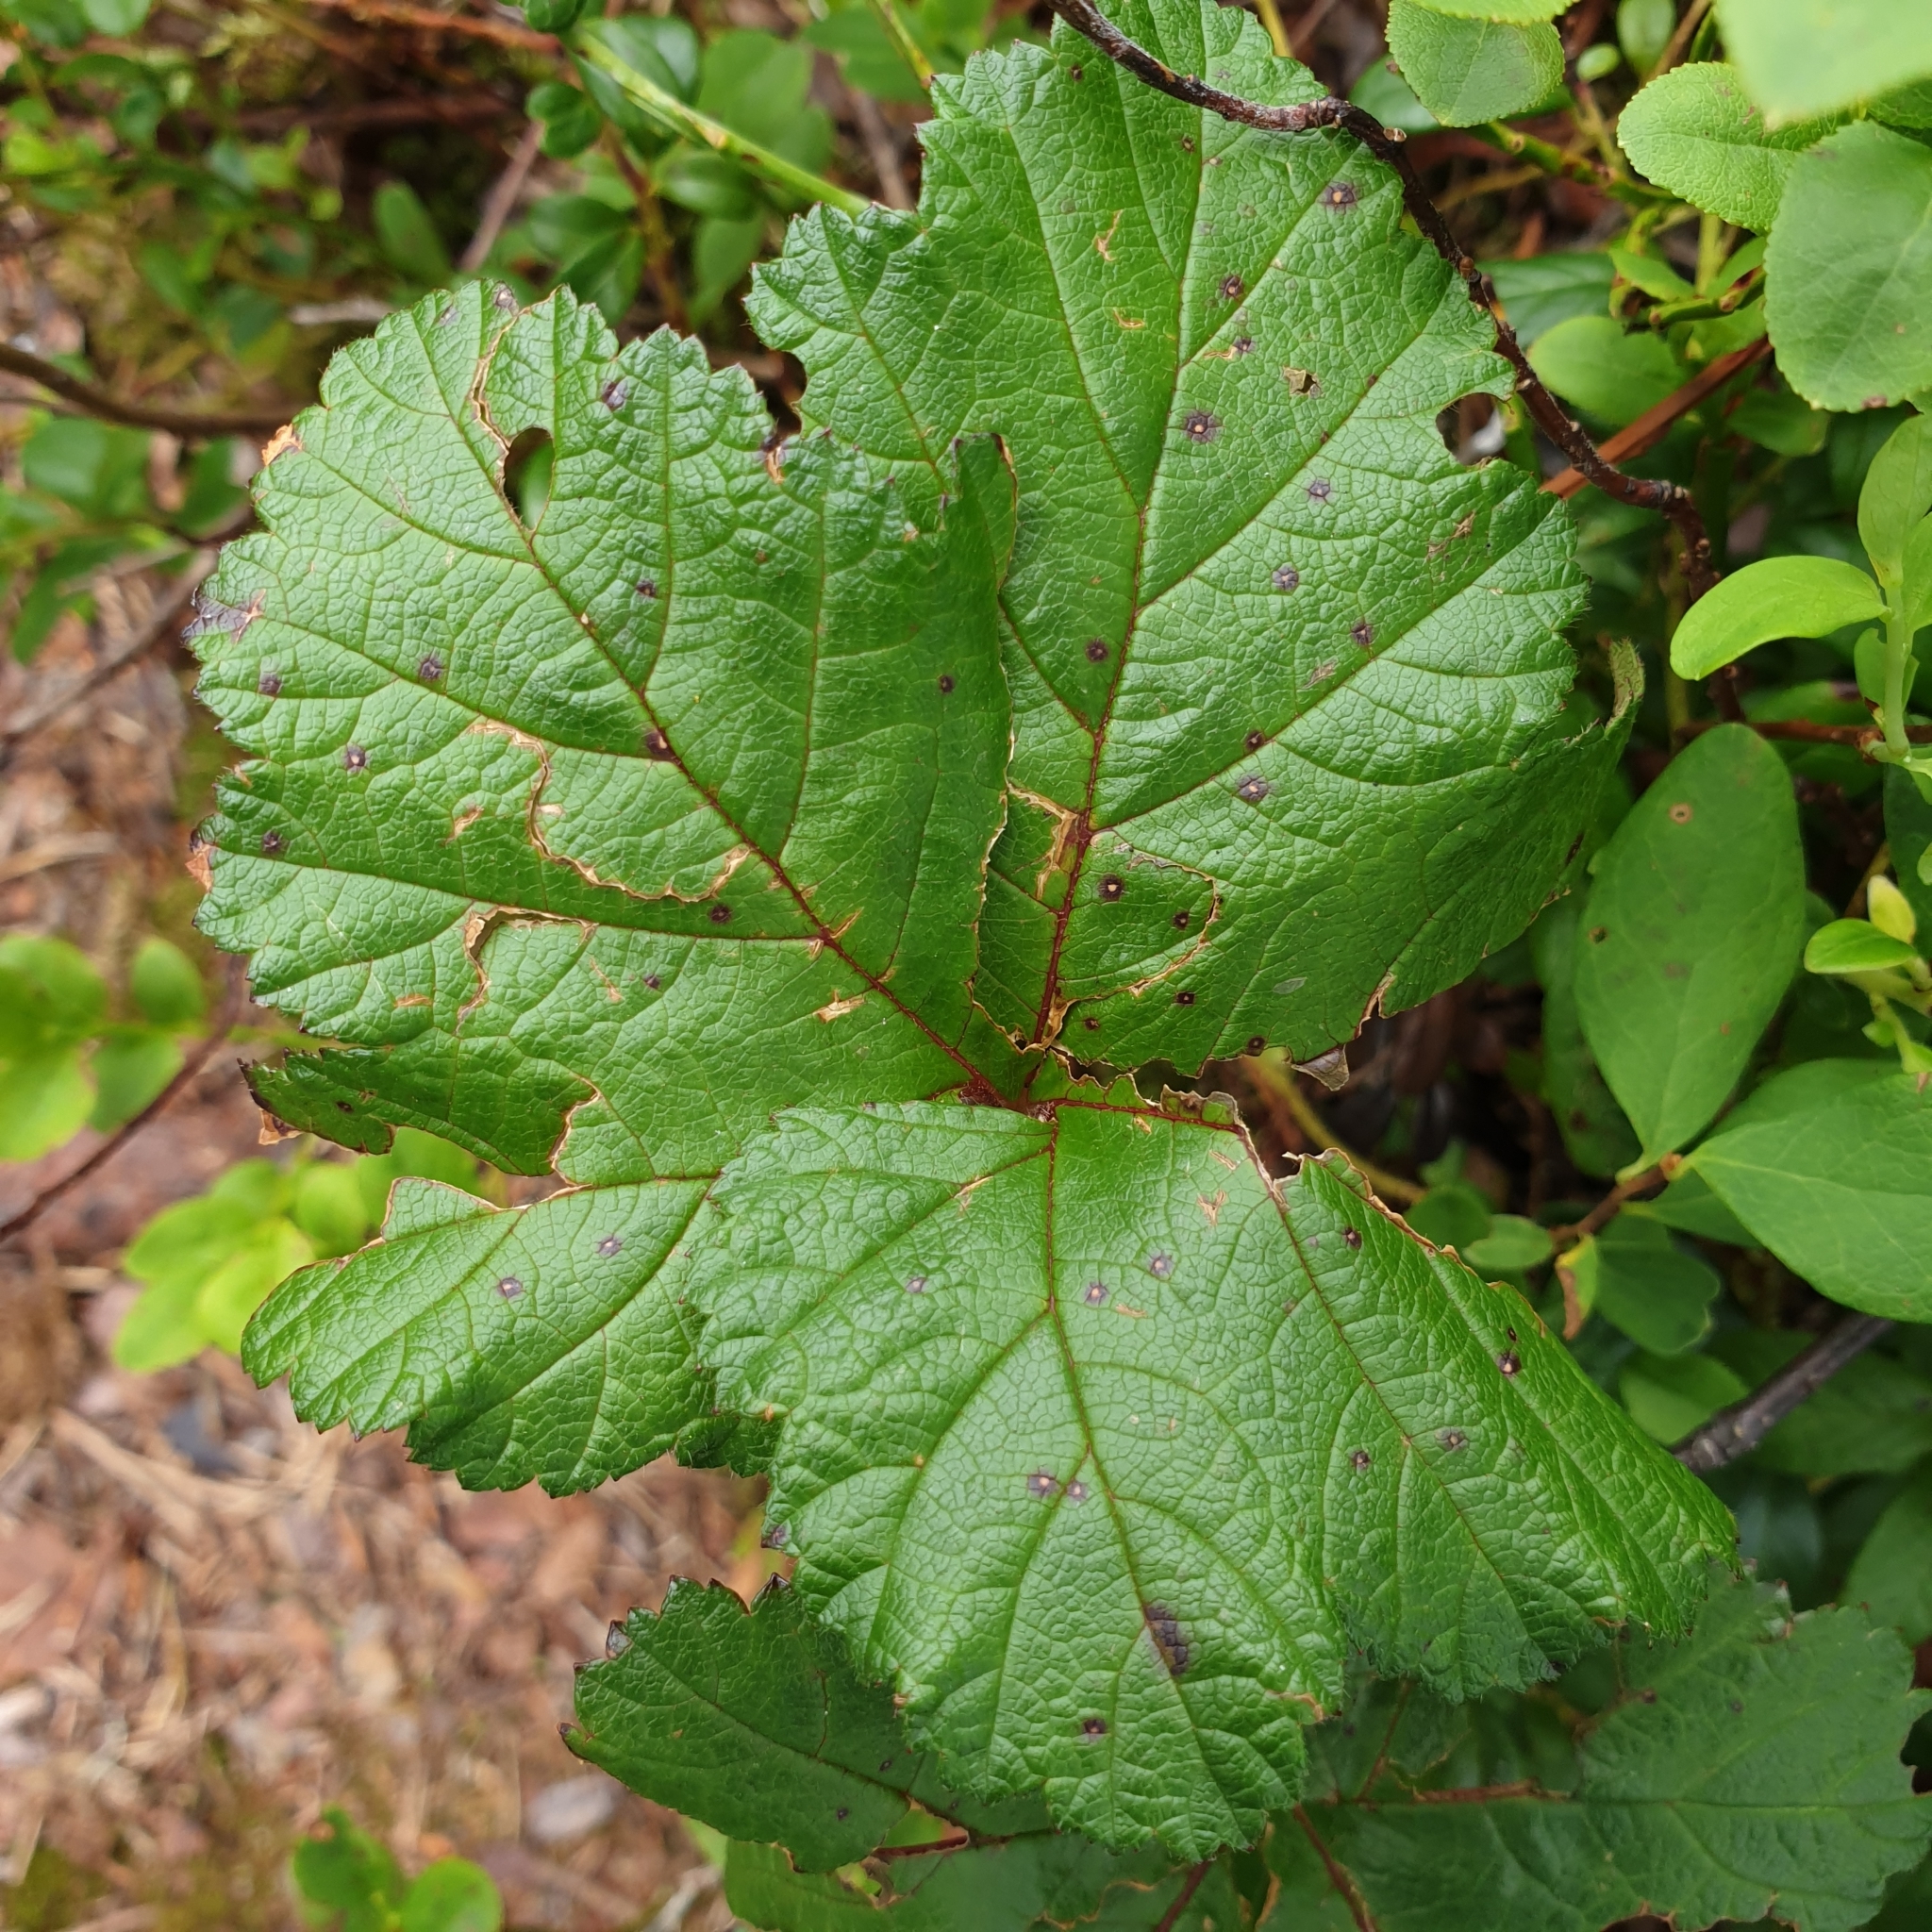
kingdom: Plantae
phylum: Tracheophyta
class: Magnoliopsida
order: Rosales
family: Rosaceae
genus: Rubus
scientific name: Rubus chamaemorus
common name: Cloudberry
